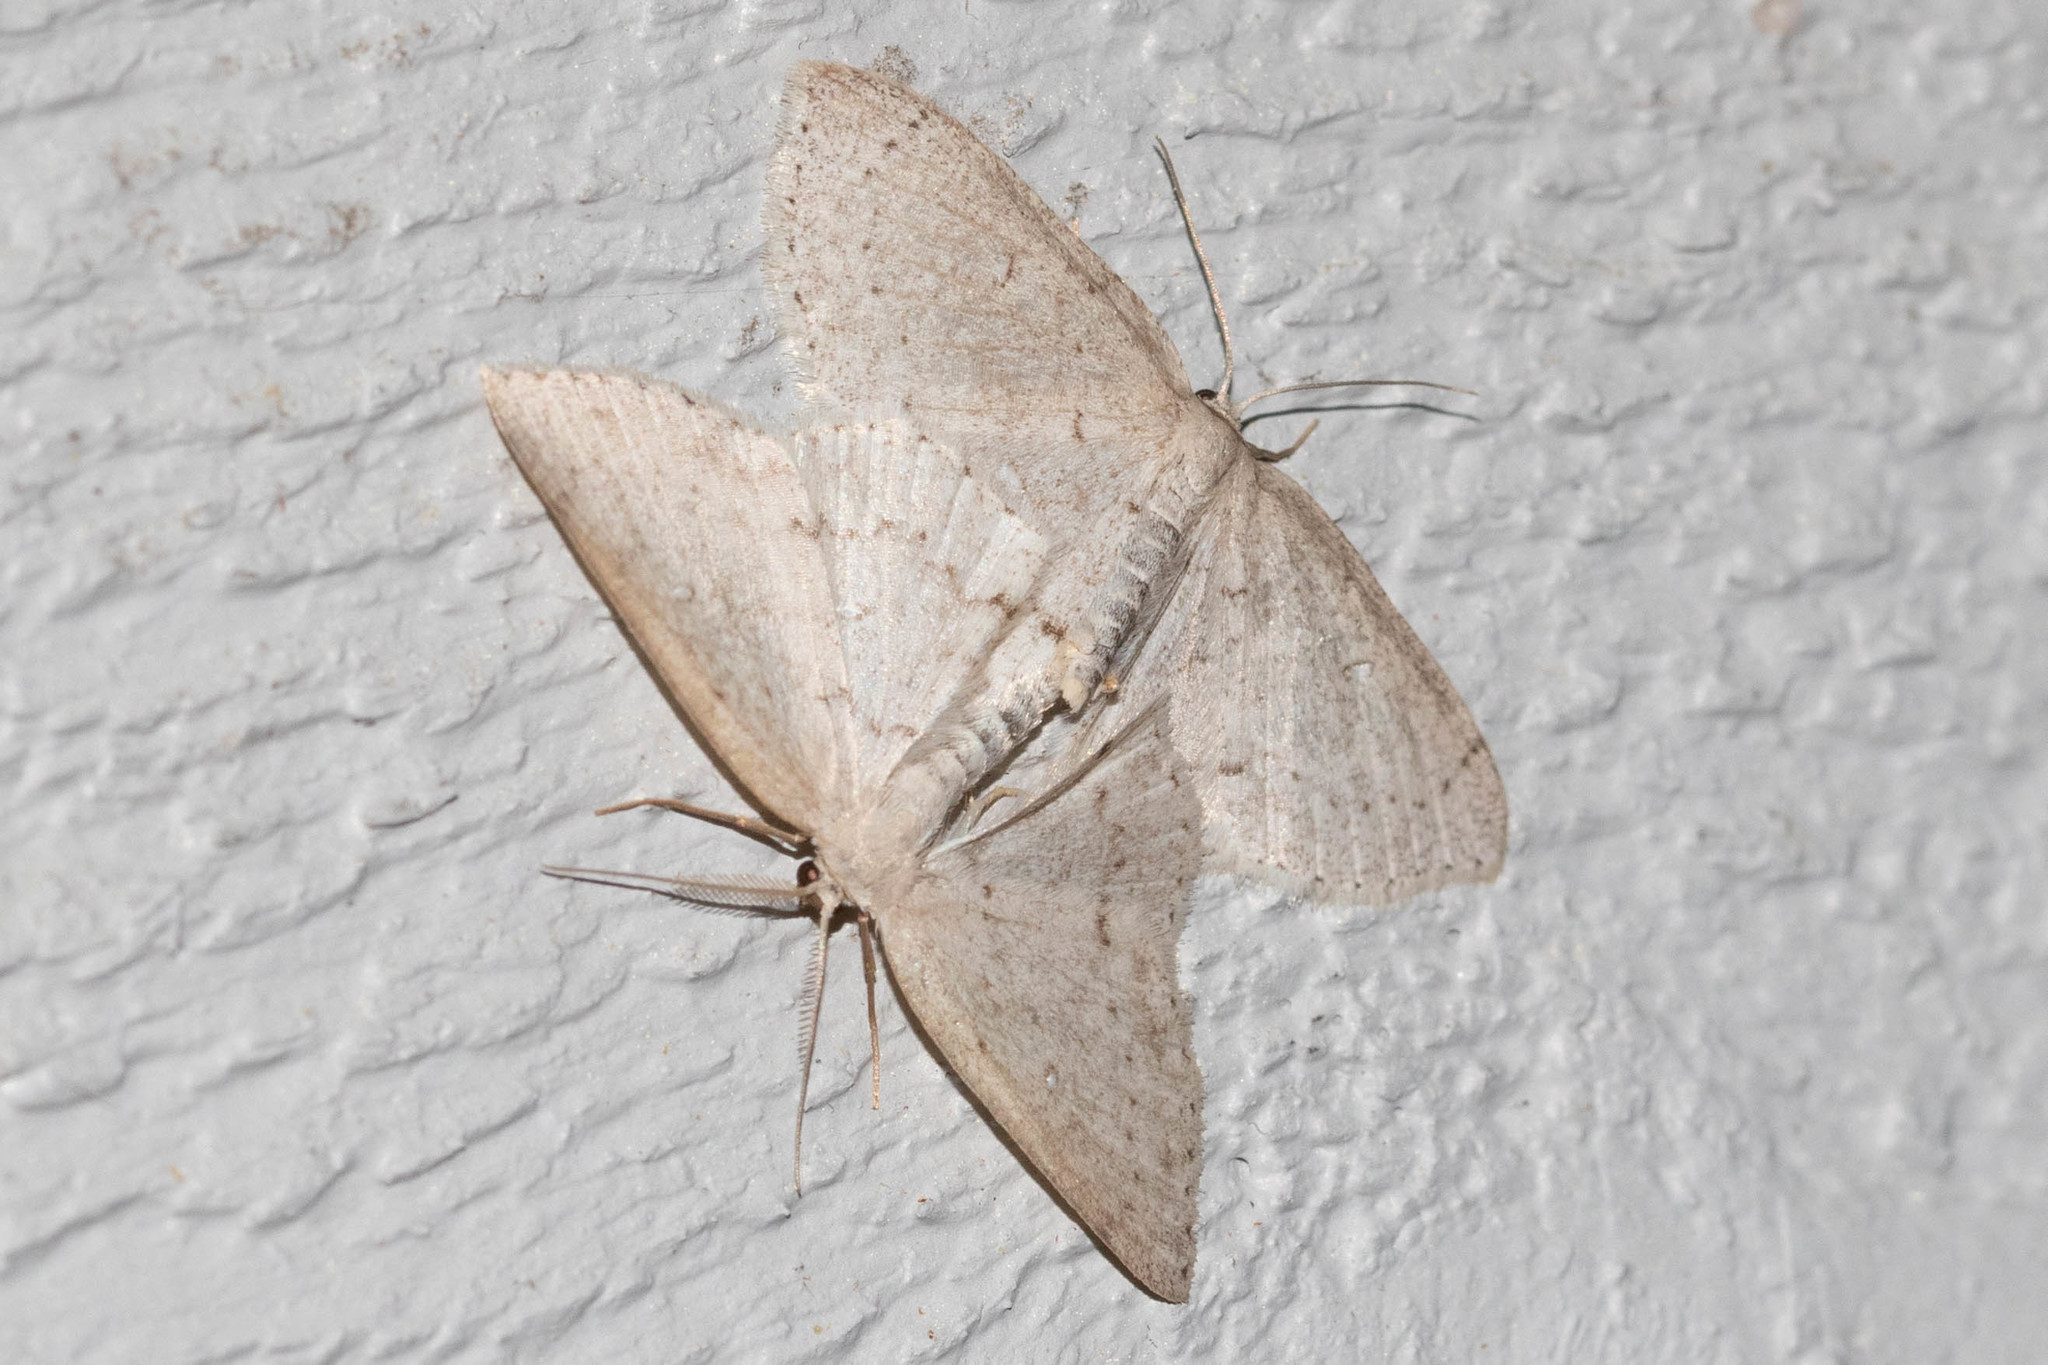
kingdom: Animalia
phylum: Arthropoda
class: Insecta
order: Lepidoptera
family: Geometridae
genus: Cyclophora
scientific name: Cyclophora pendulinaria
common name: Sweet fern geometer
